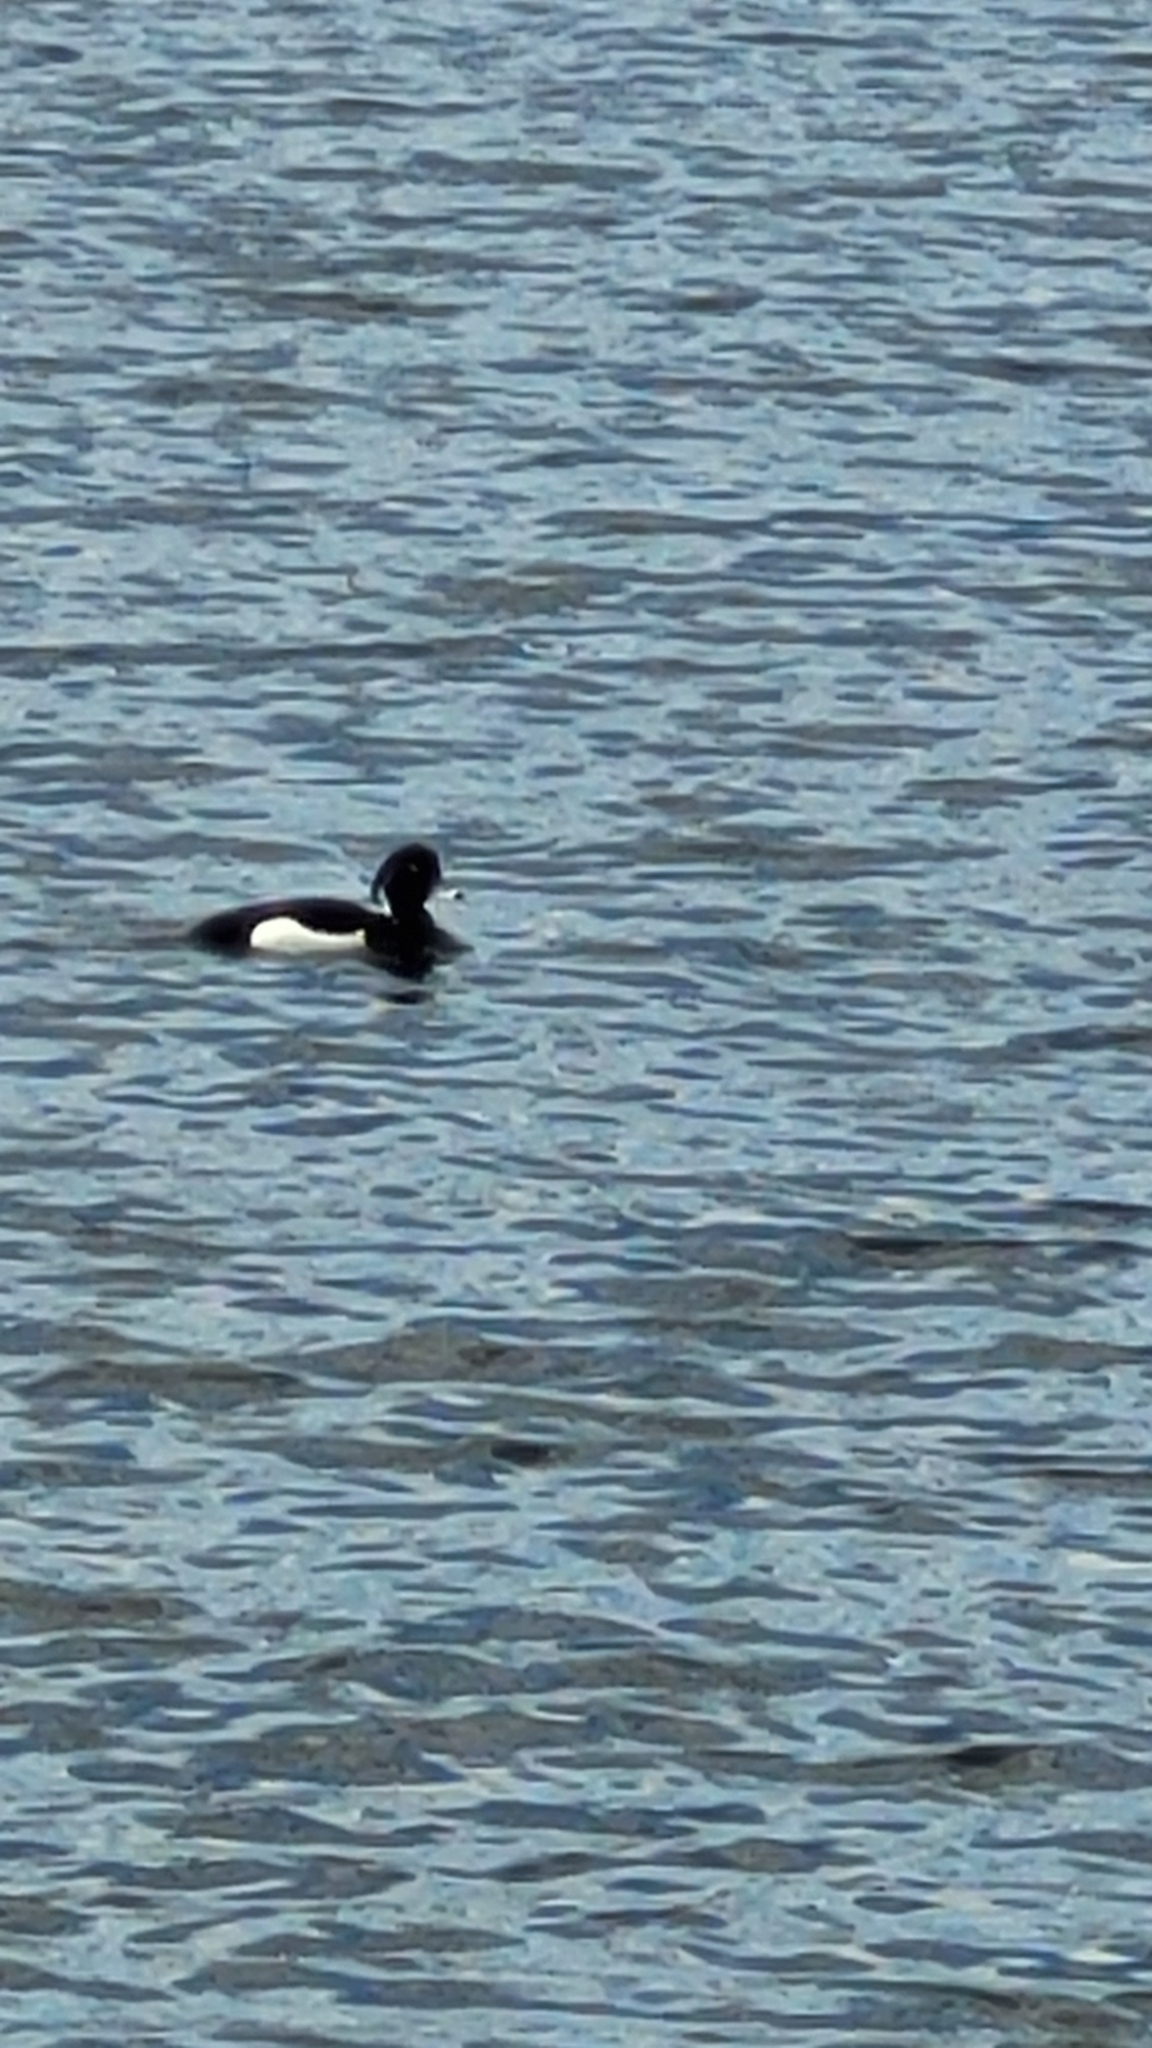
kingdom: Animalia
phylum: Chordata
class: Aves
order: Anseriformes
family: Anatidae
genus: Aythya
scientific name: Aythya fuligula
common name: Tufted duck
